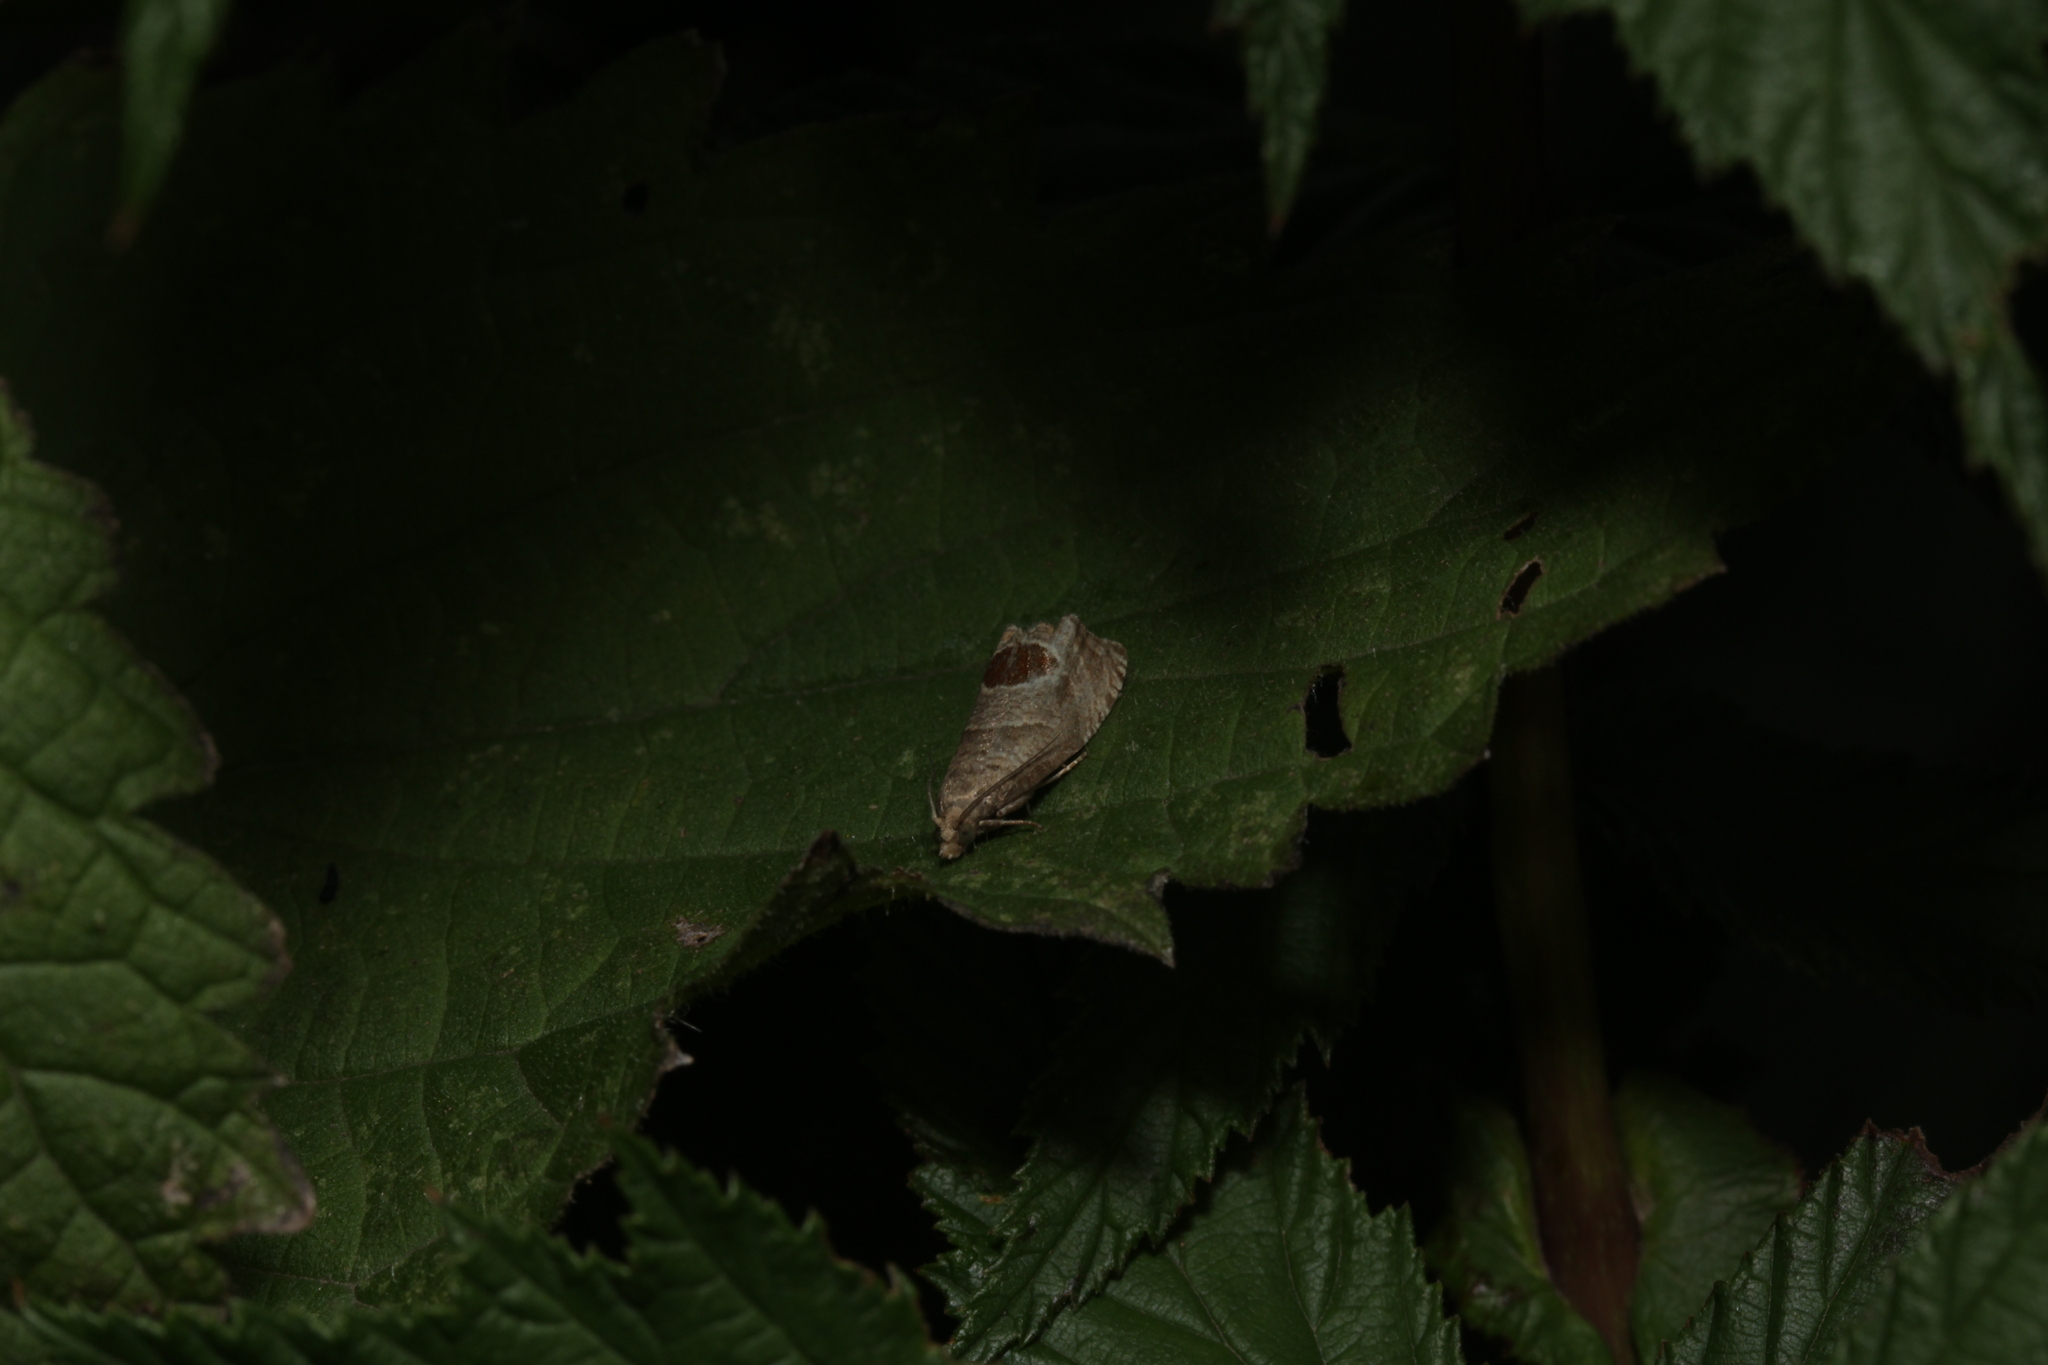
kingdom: Animalia
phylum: Arthropoda
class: Insecta
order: Lepidoptera
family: Tortricidae
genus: Notocelia
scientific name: Notocelia uddmanniana
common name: Bramble shoot moth
